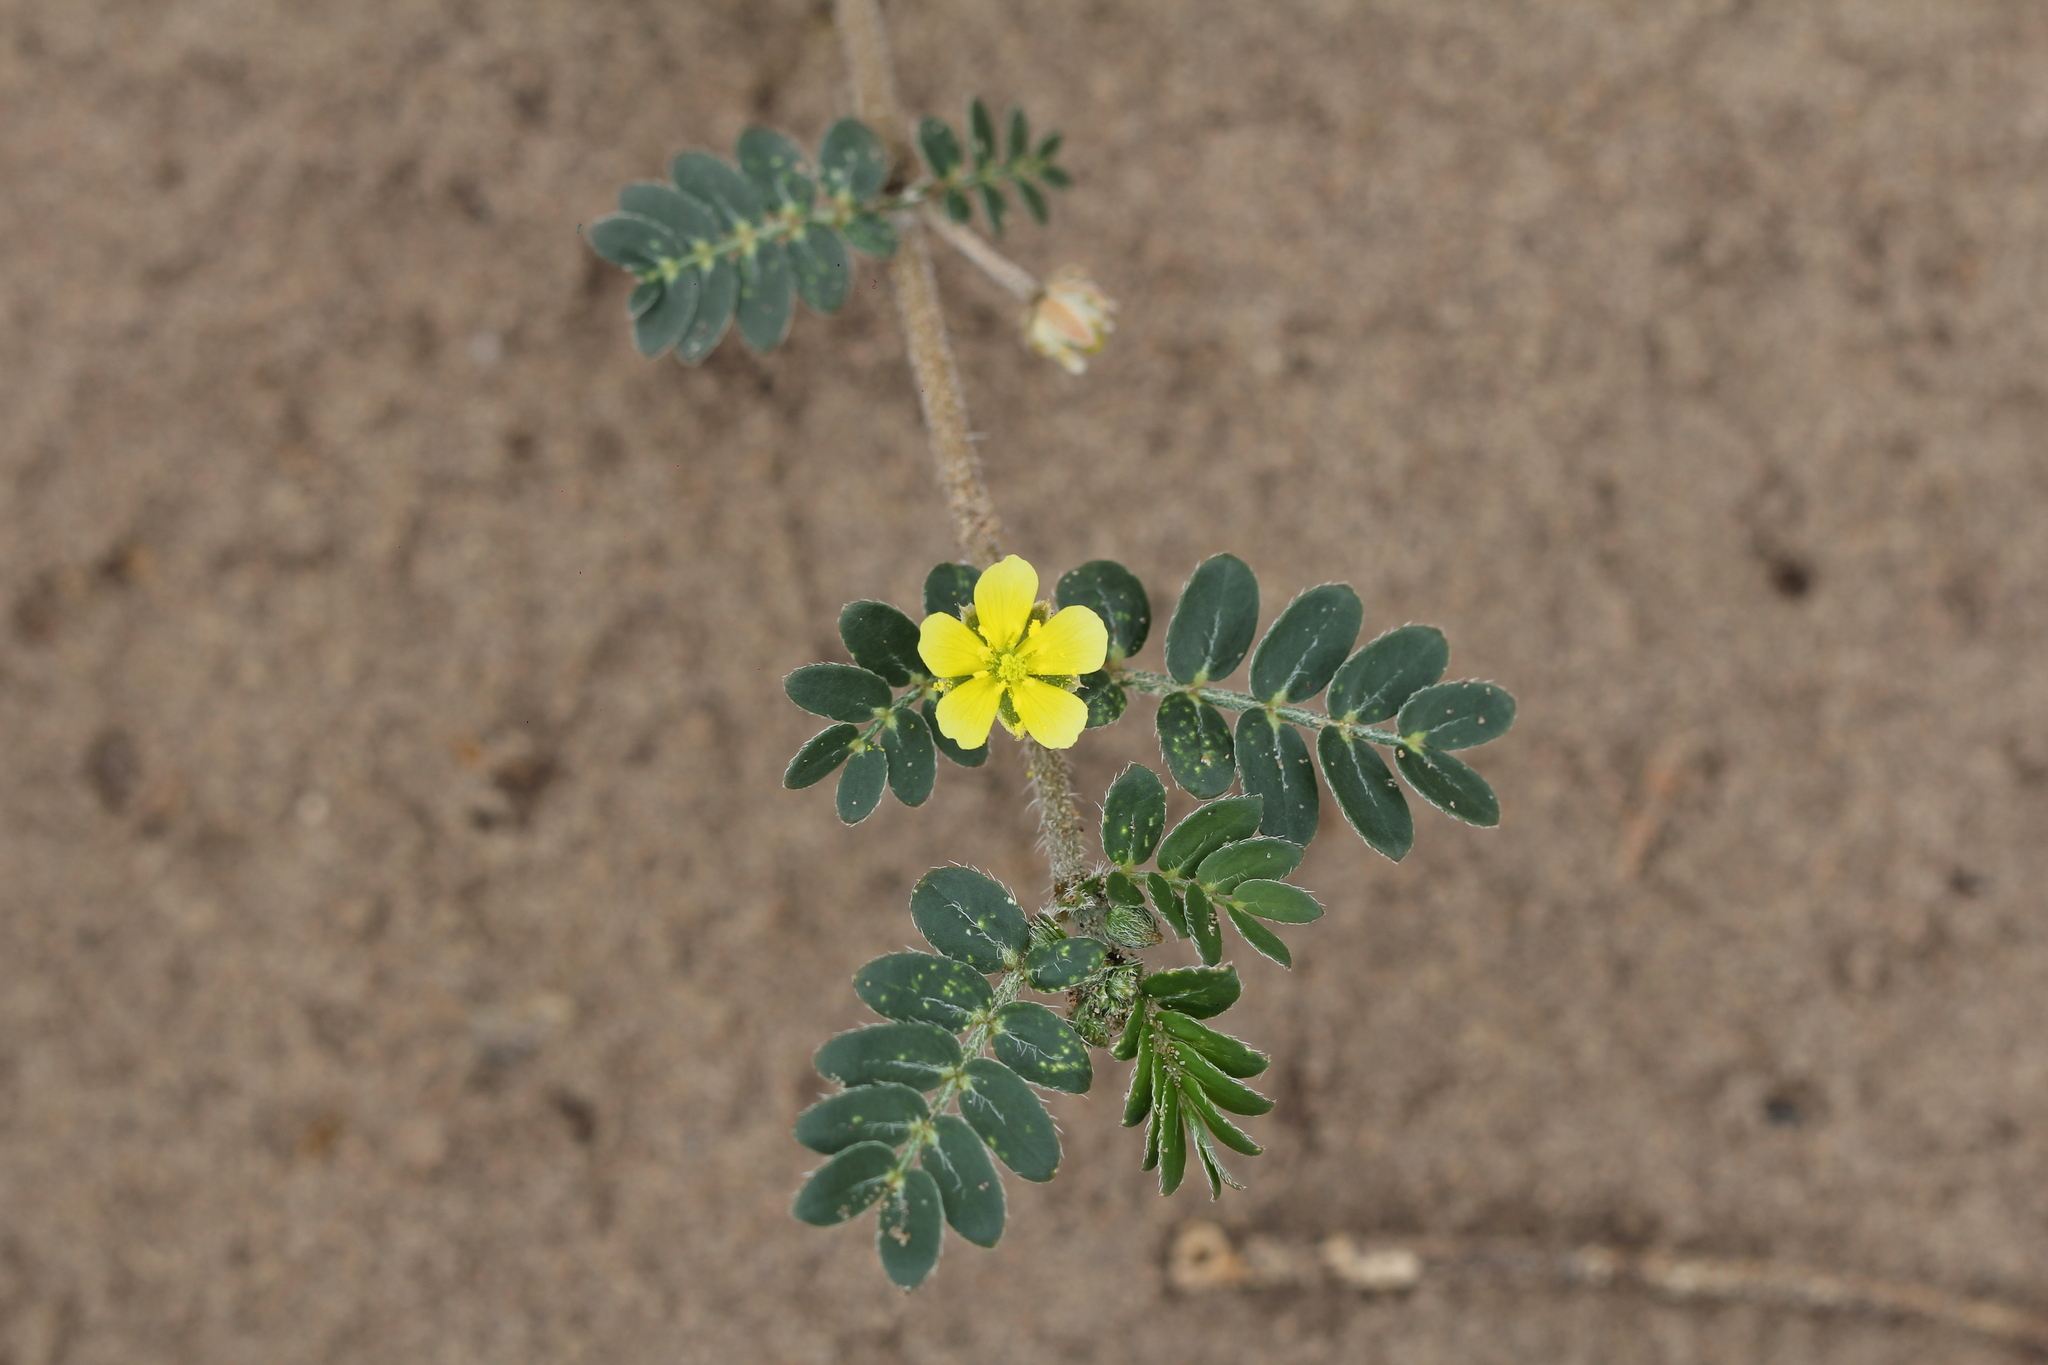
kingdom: Plantae
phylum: Tracheophyta
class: Magnoliopsida
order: Zygophyllales
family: Zygophyllaceae
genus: Tribulus
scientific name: Tribulus terrestris
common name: Puncturevine
